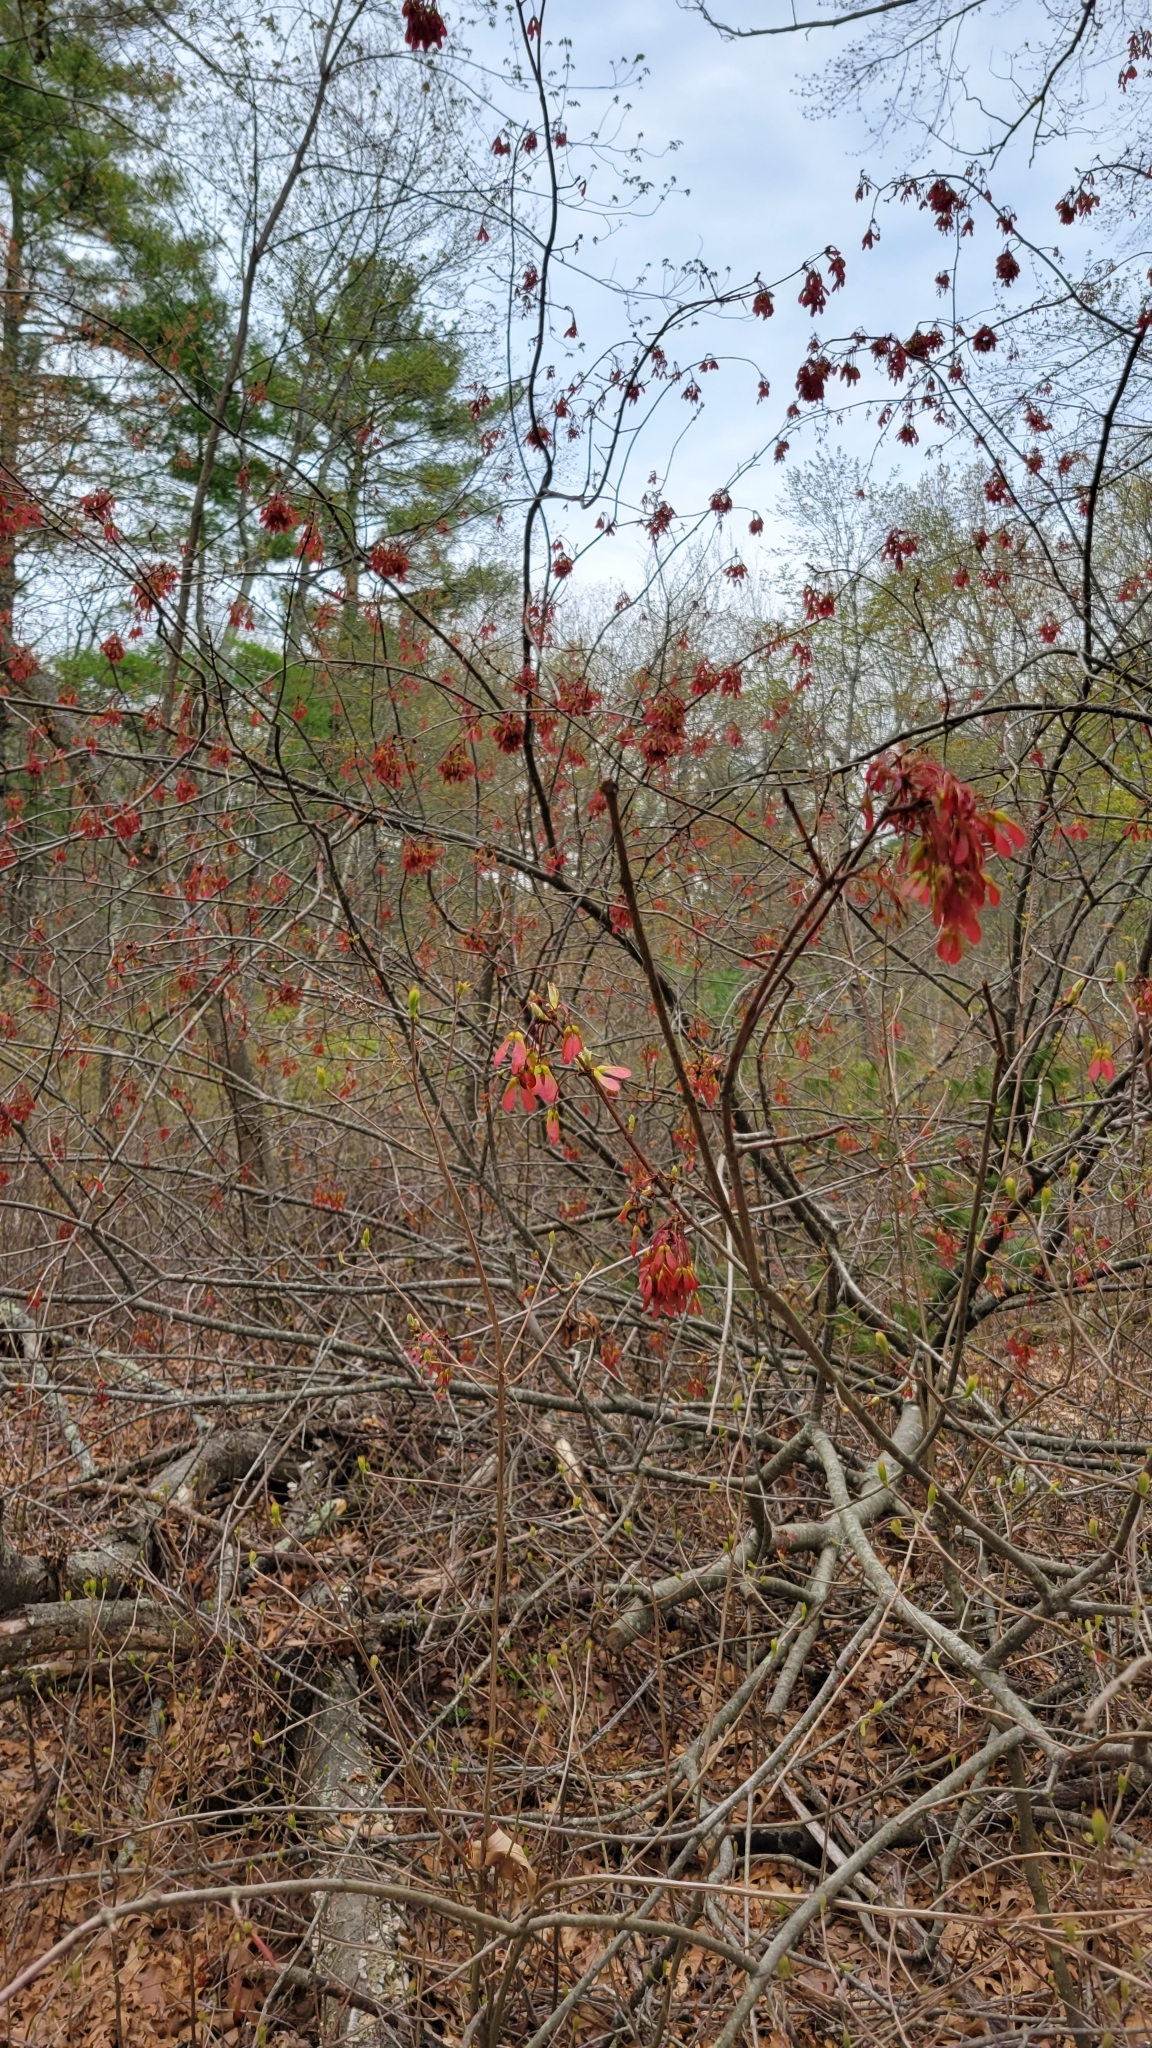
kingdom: Plantae
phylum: Tracheophyta
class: Magnoliopsida
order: Sapindales
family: Sapindaceae
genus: Acer
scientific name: Acer rubrum
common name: Red maple
